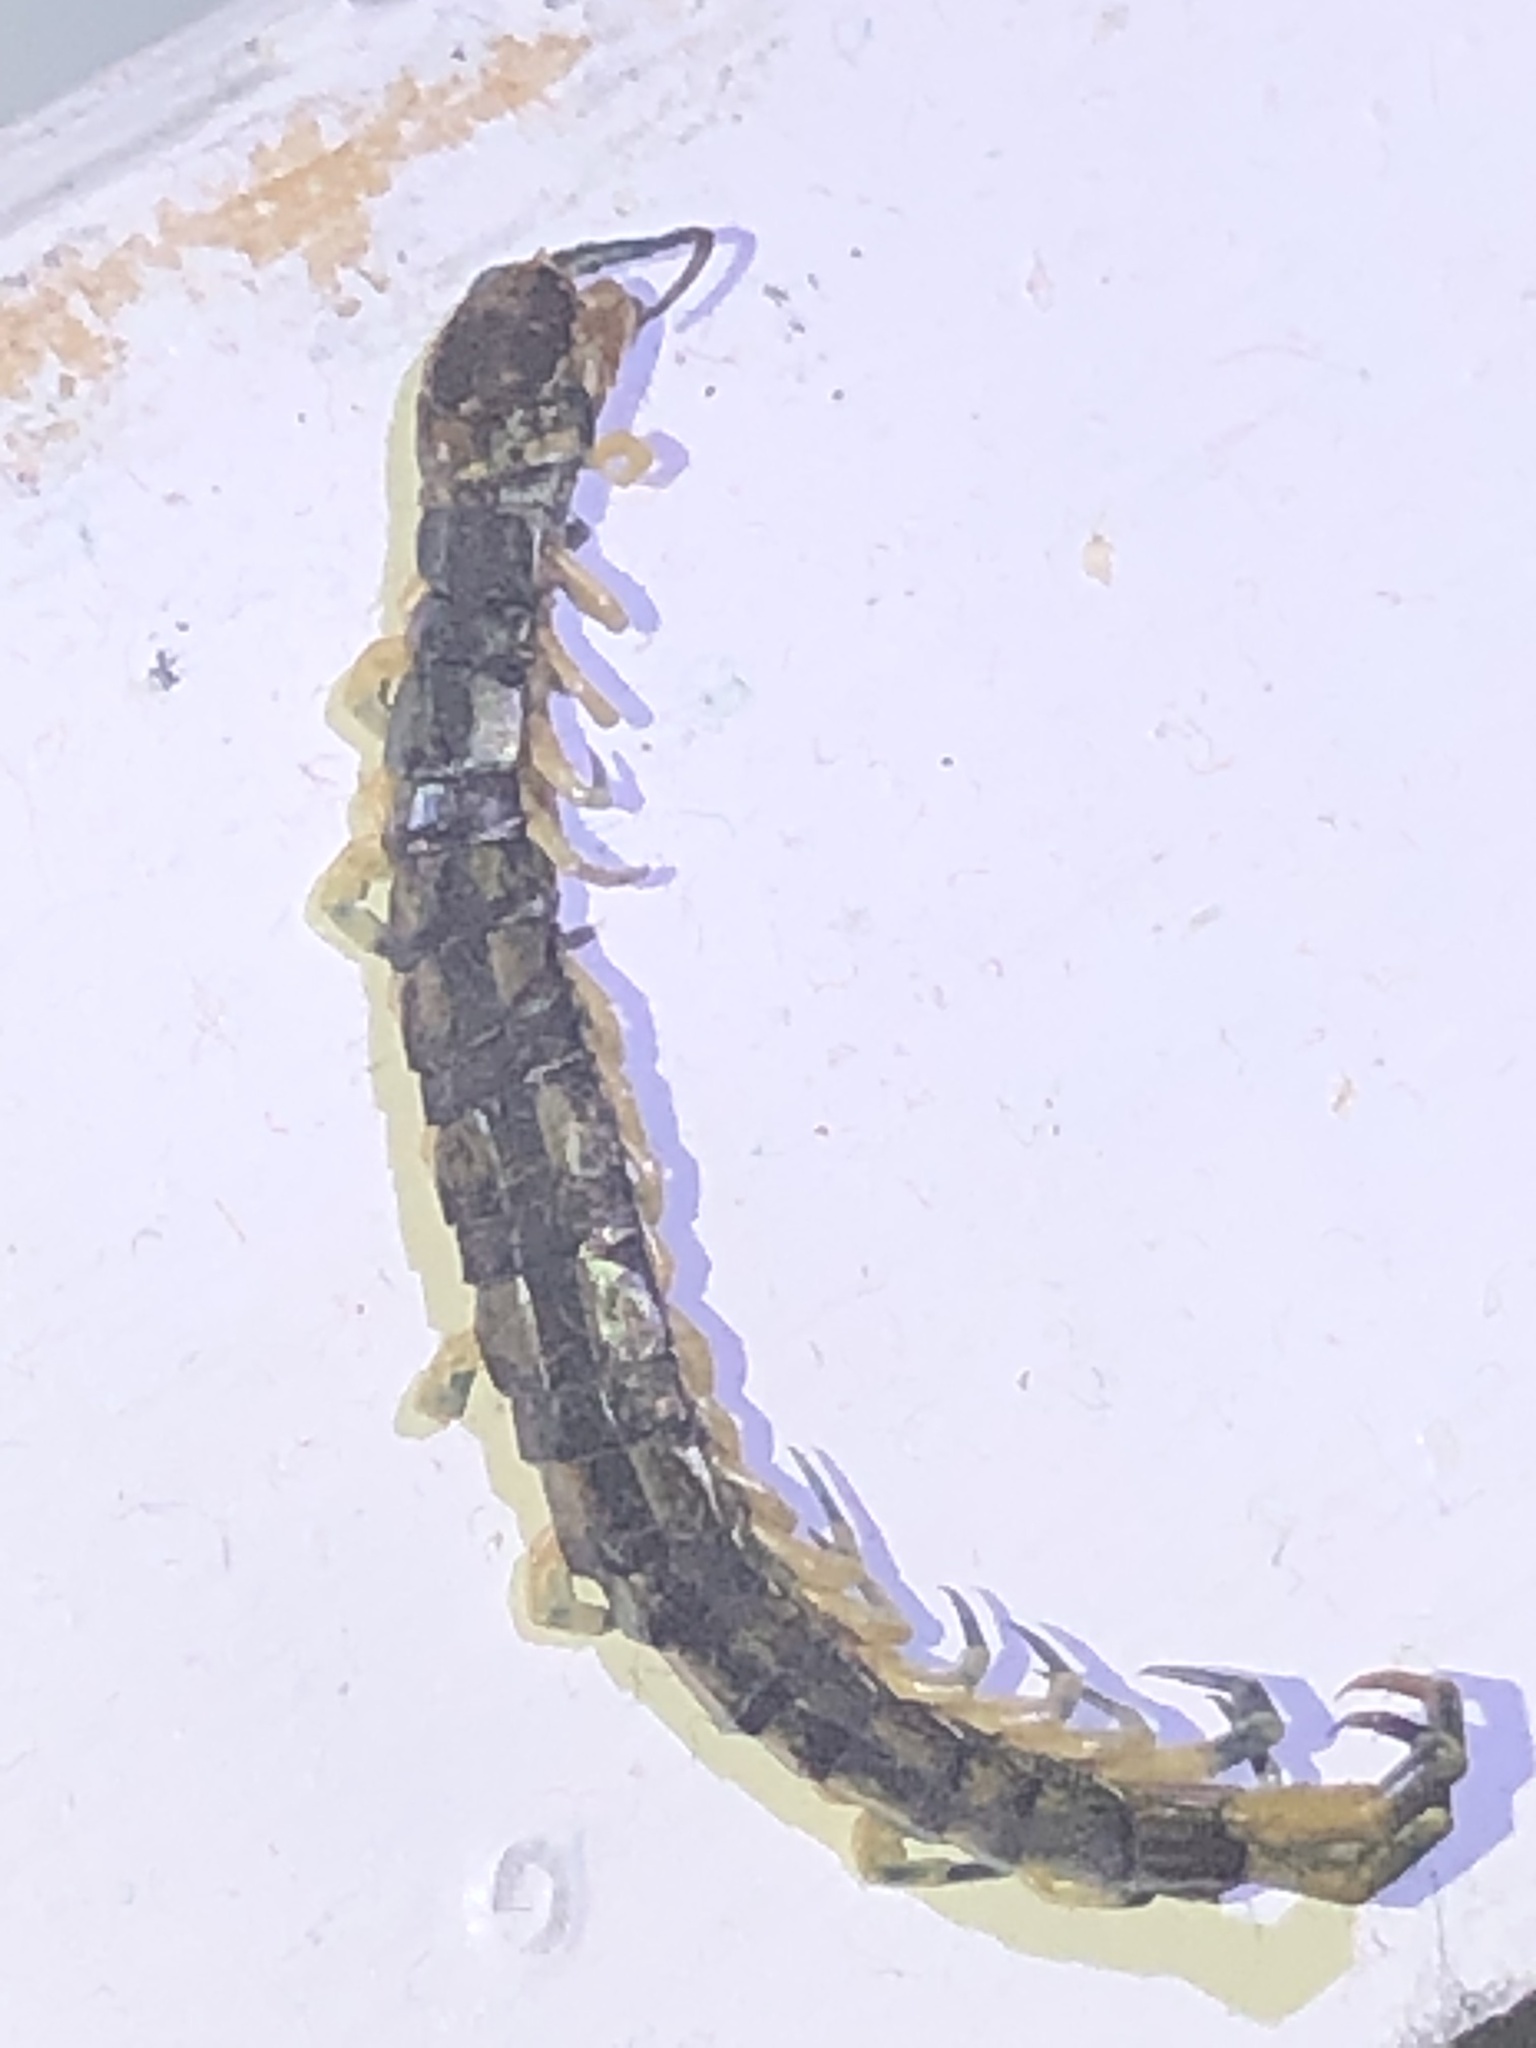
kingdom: Animalia
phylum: Arthropoda
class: Chilopoda
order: Scolopendromorpha
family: Scolopendridae
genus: Hemiscolopendra
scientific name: Hemiscolopendra marginata
